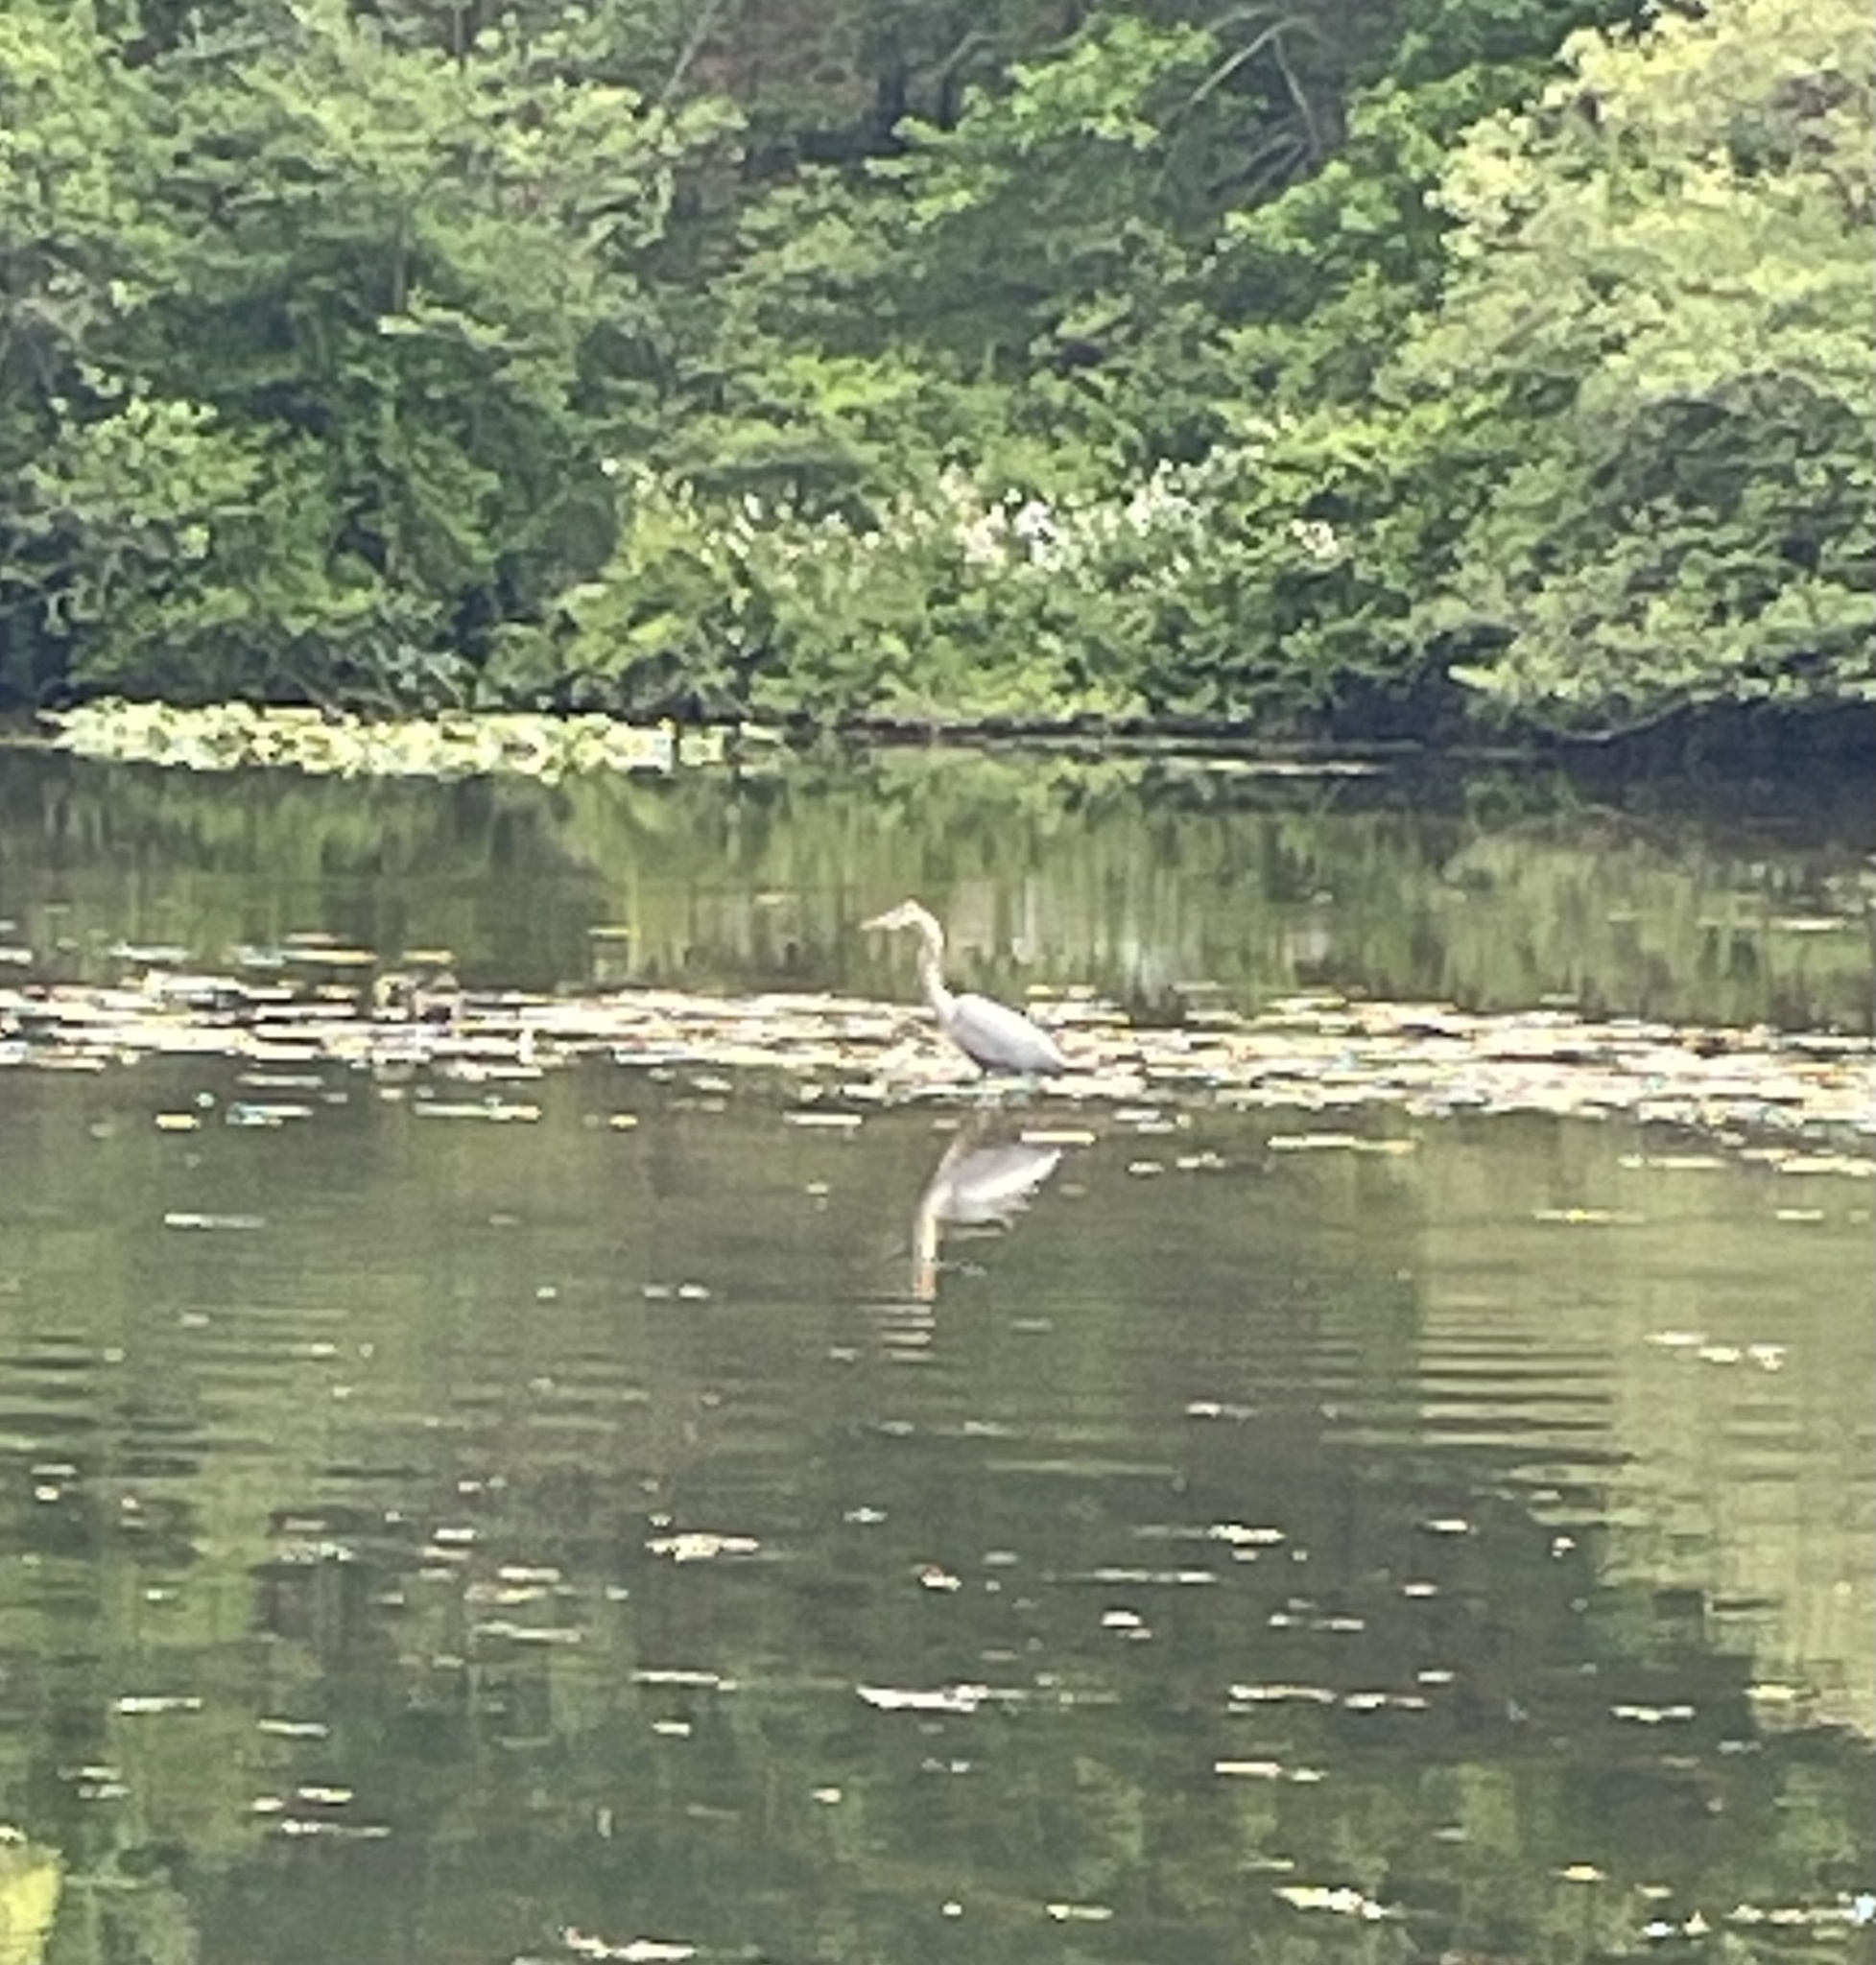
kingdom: Animalia
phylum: Chordata
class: Aves
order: Pelecaniformes
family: Ardeidae
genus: Ardea
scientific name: Ardea herodias
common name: Great blue heron
